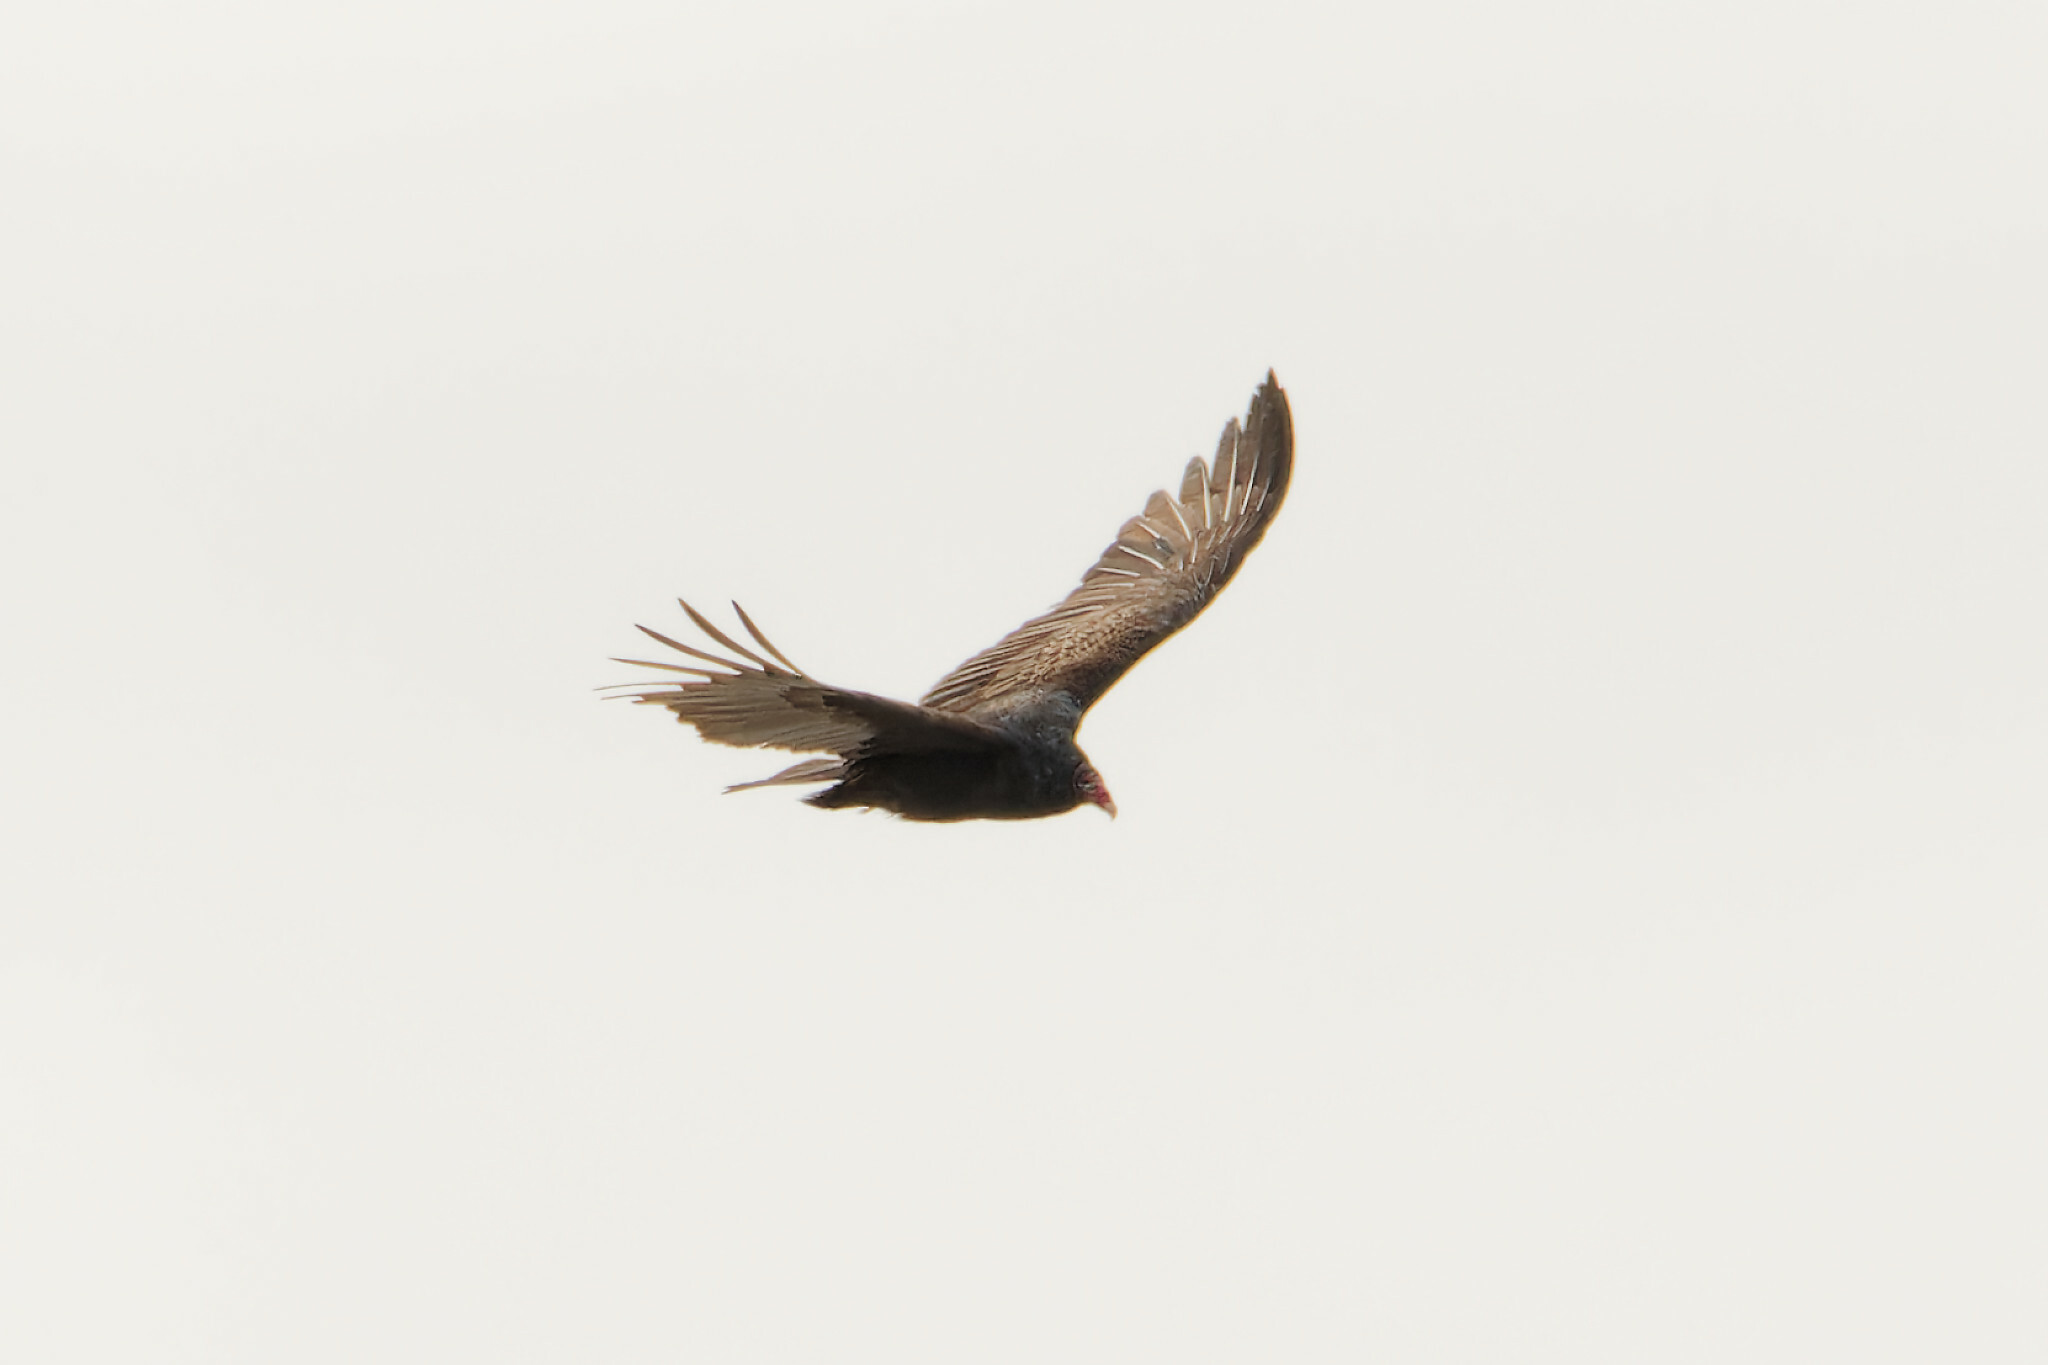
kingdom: Animalia
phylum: Chordata
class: Aves
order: Accipitriformes
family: Cathartidae
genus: Cathartes
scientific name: Cathartes aura
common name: Turkey vulture
